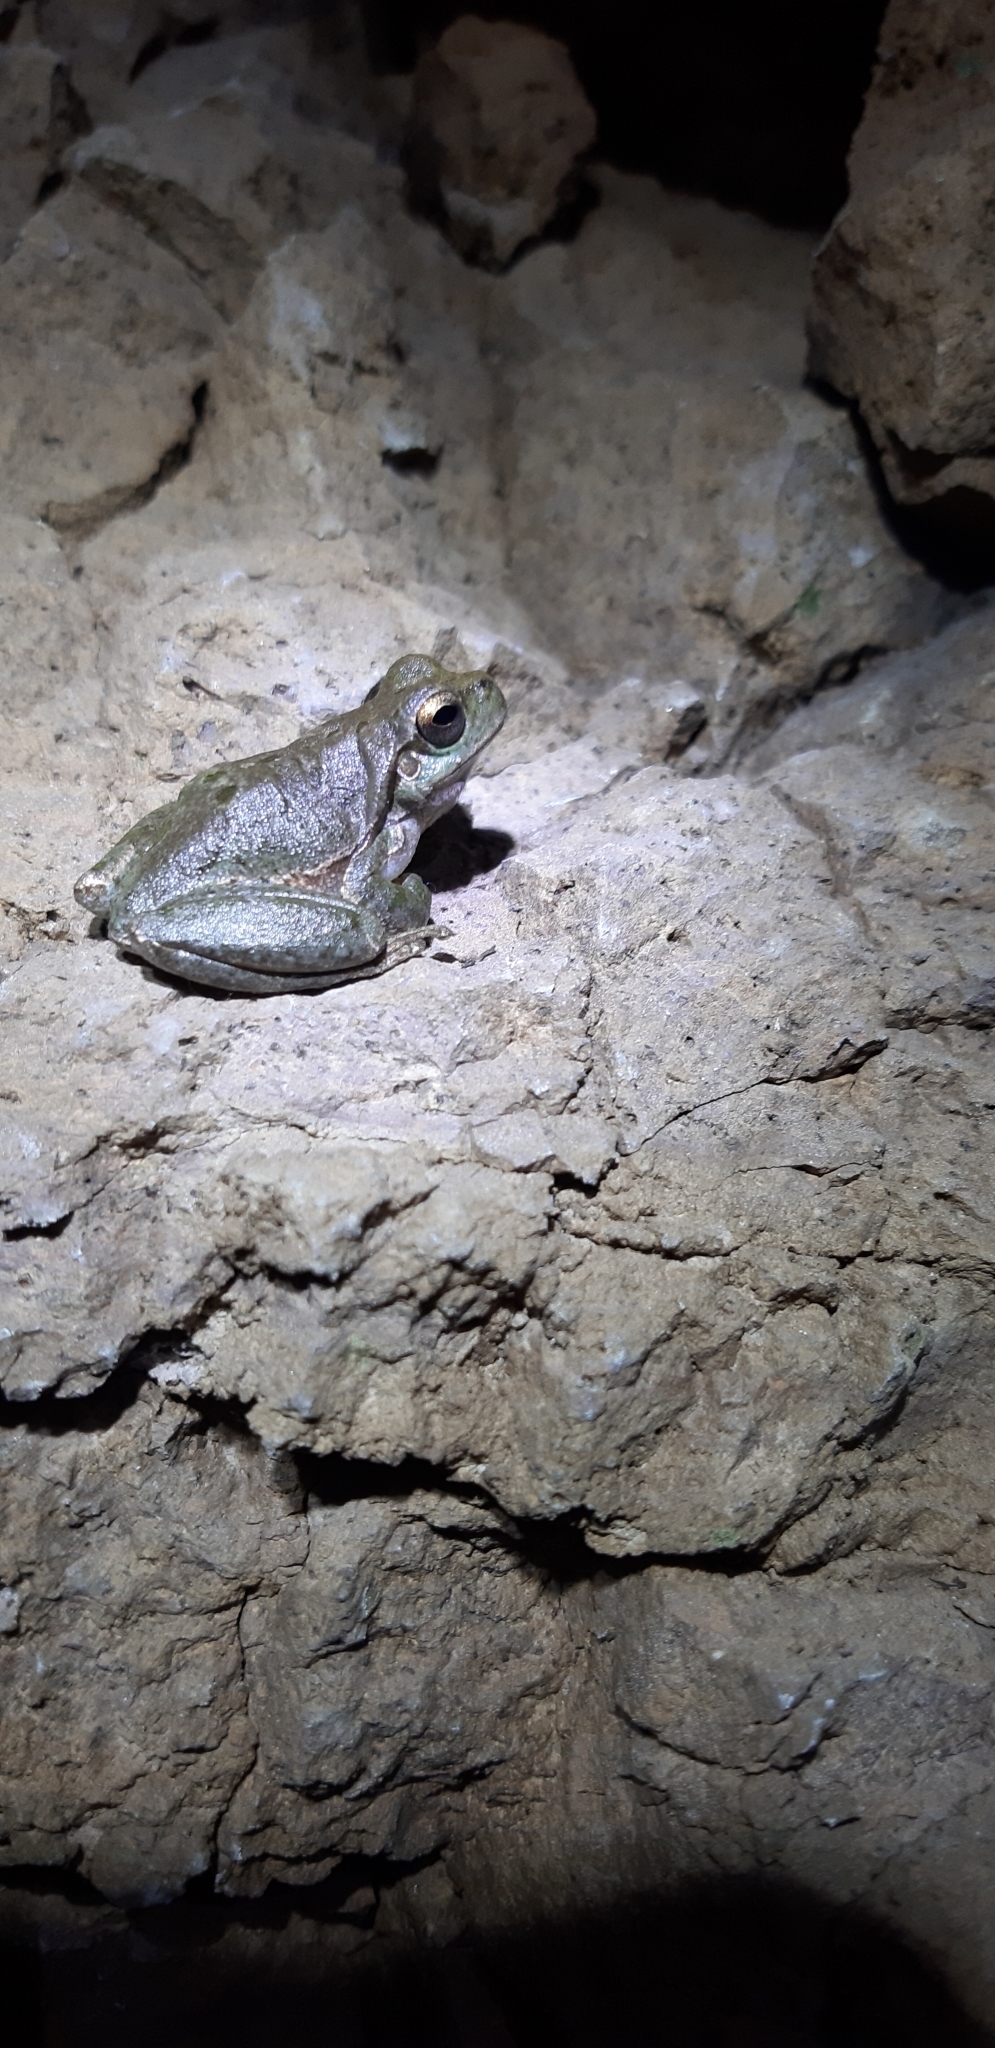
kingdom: Animalia
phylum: Chordata
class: Amphibia
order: Anura
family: Hylidae
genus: Hyla
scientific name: Hyla sarda
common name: Sardinian tree frog
